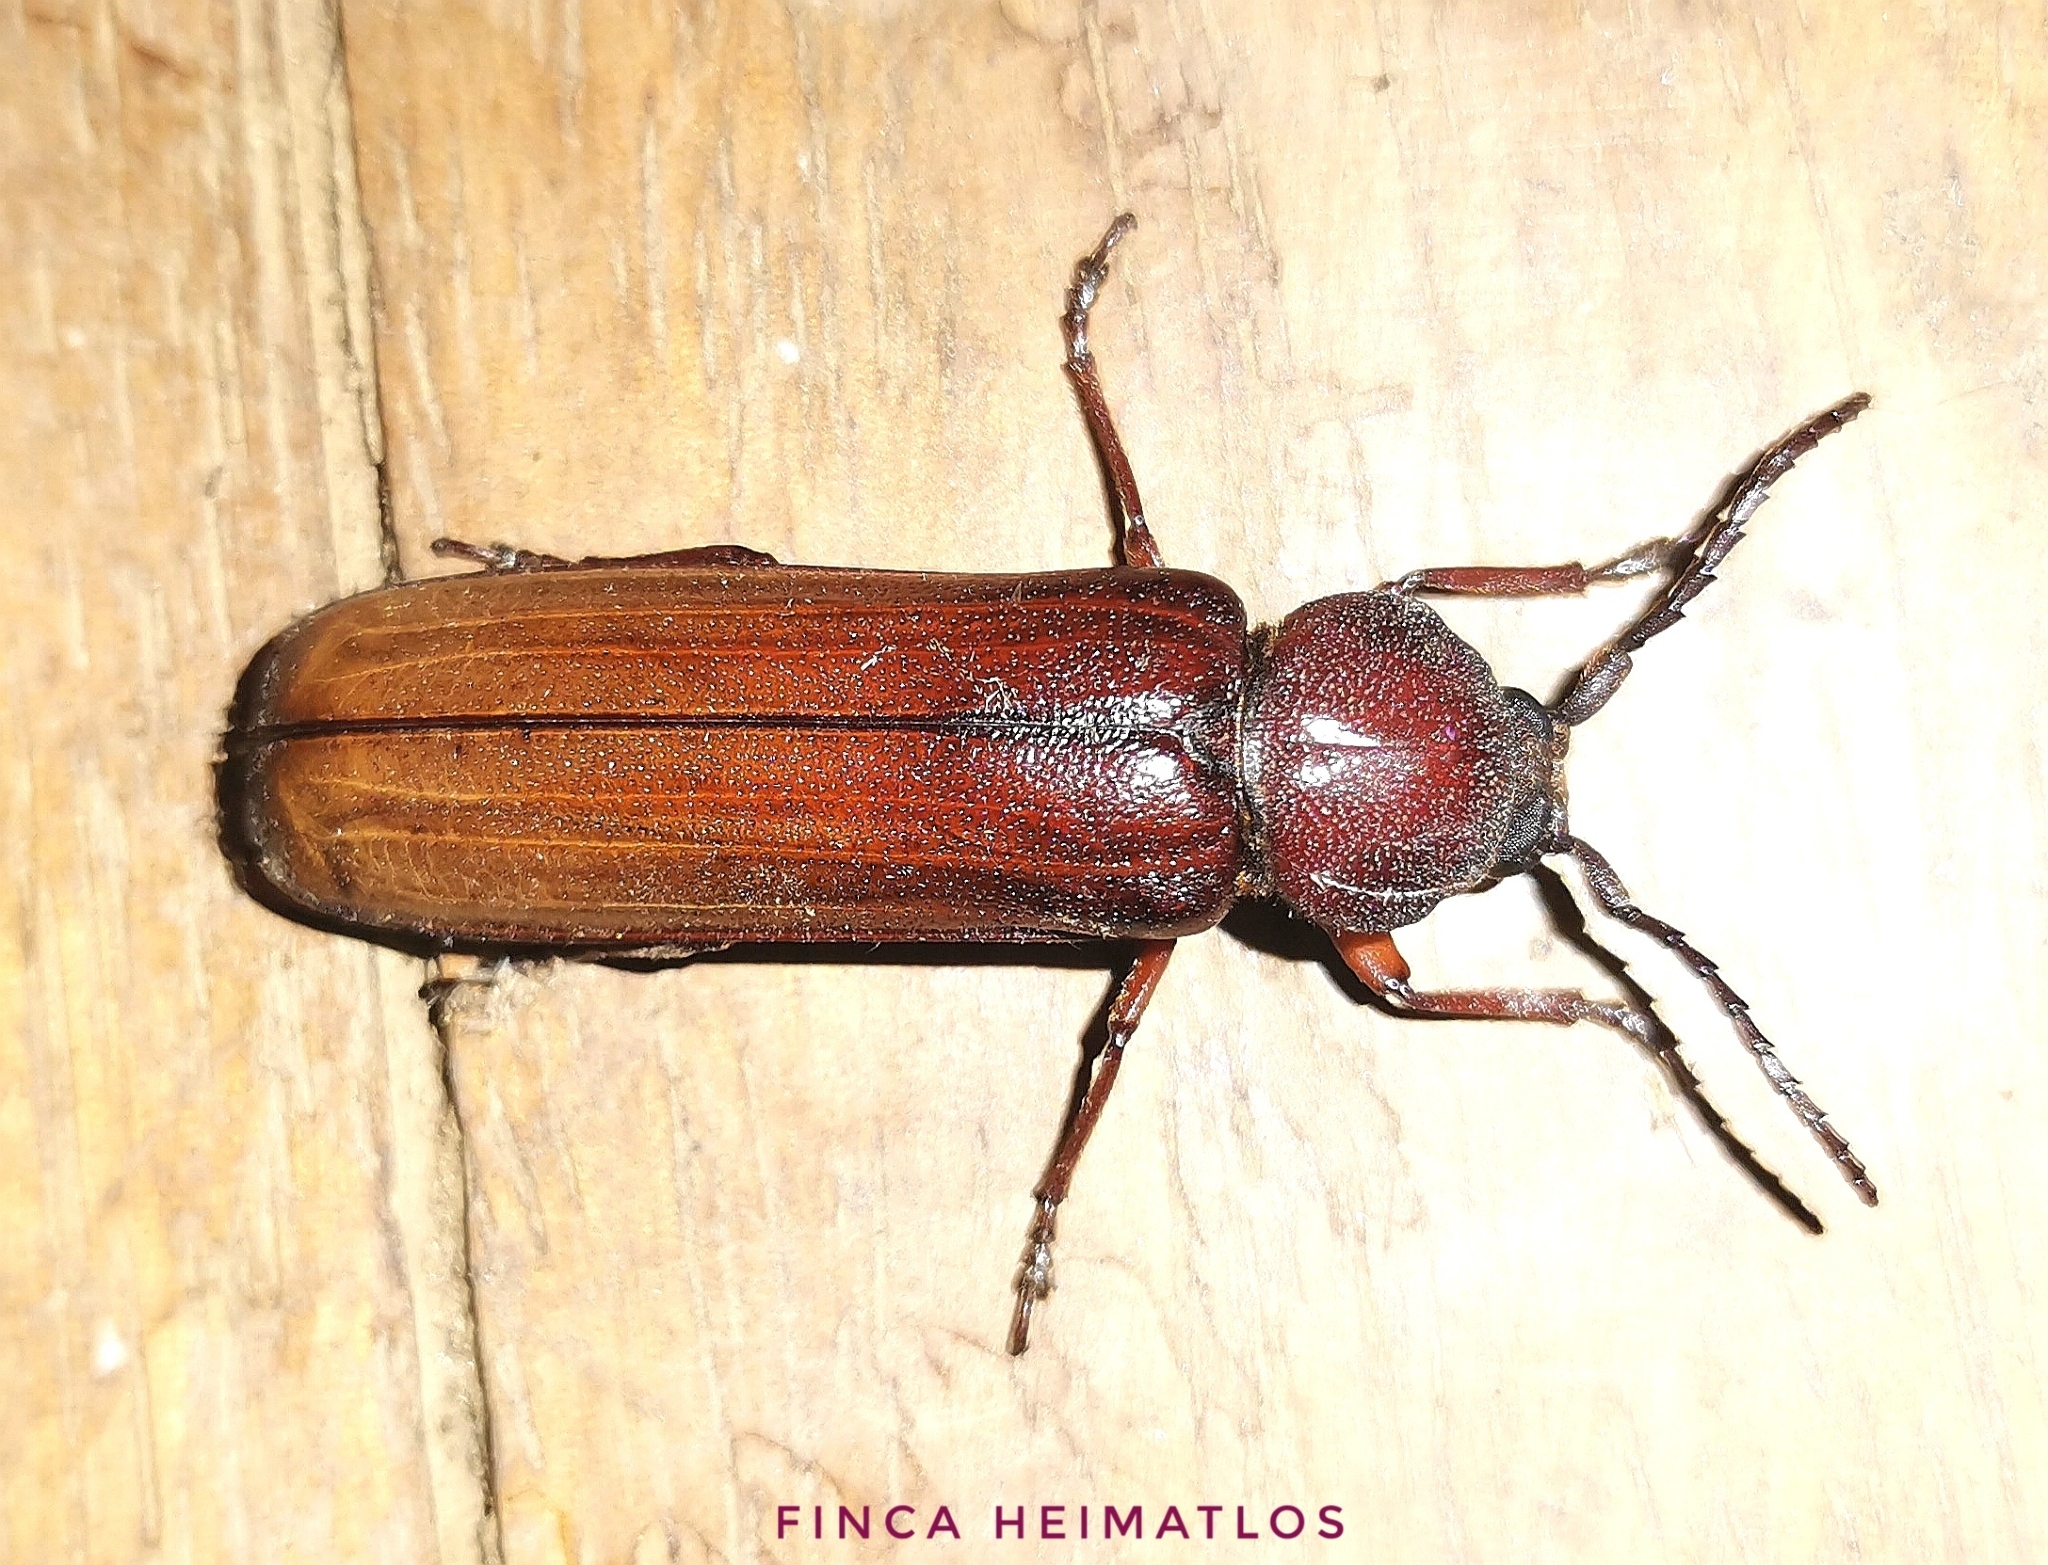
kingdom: Animalia
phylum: Arthropoda
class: Insecta
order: Coleoptera
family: Cerambycidae
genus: Xenambyx
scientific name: Xenambyx lansbergei
